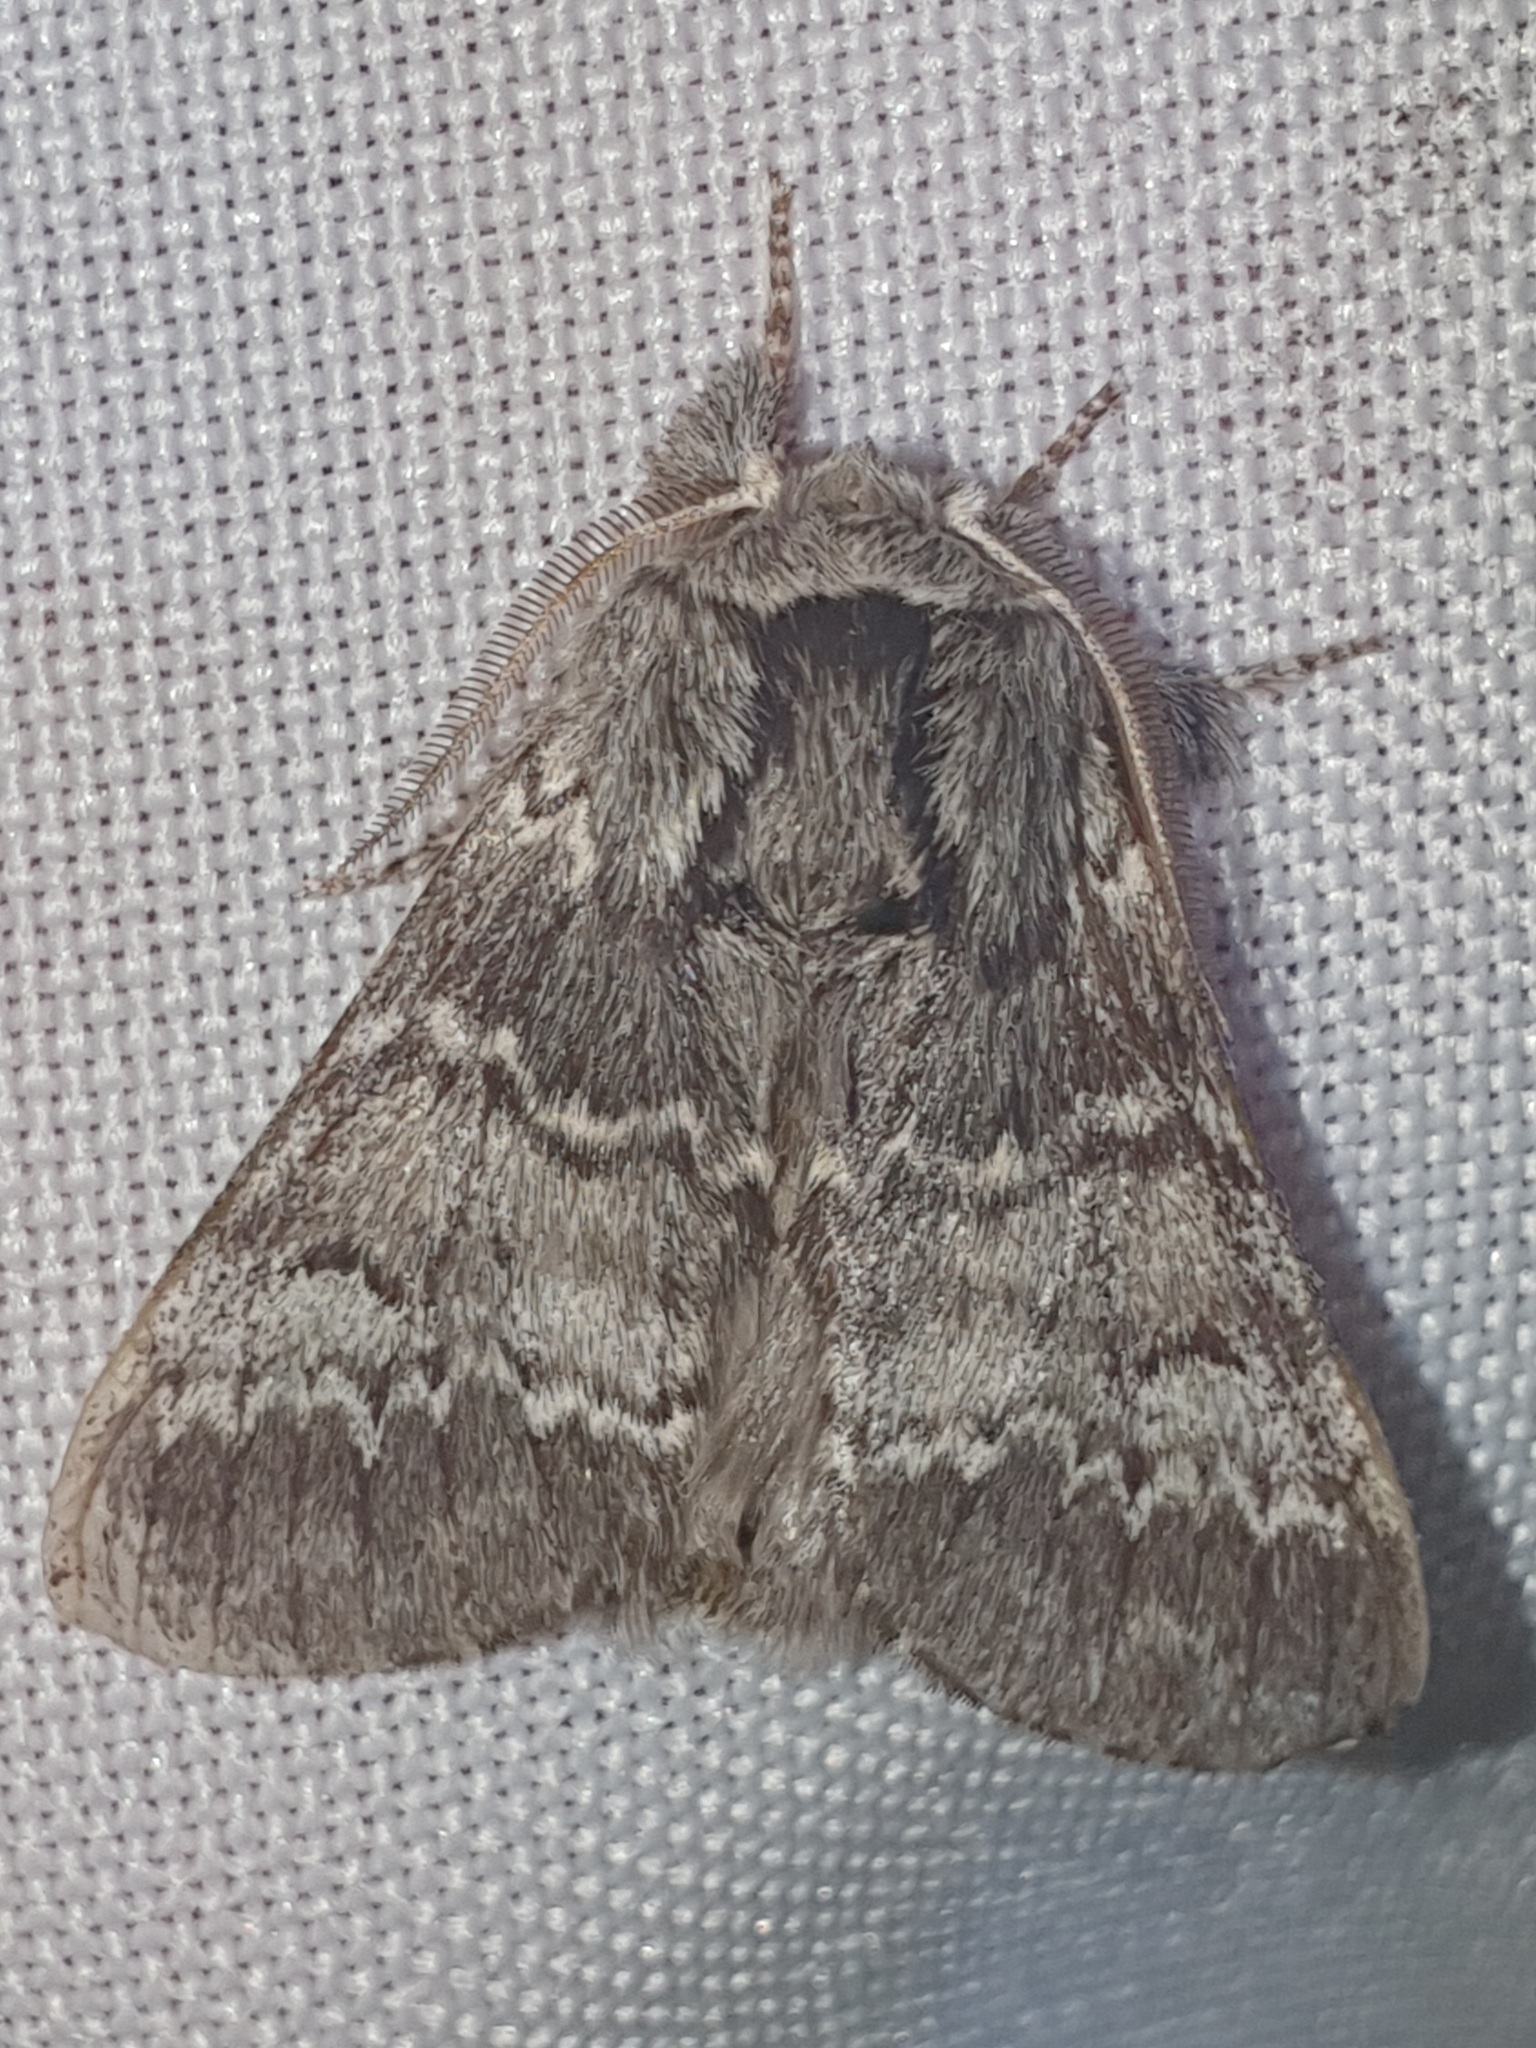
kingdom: Animalia
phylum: Arthropoda
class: Insecta
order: Lepidoptera
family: Notodontidae
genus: Drymonia
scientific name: Drymonia ruficornis
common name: Lunar marbled brown
